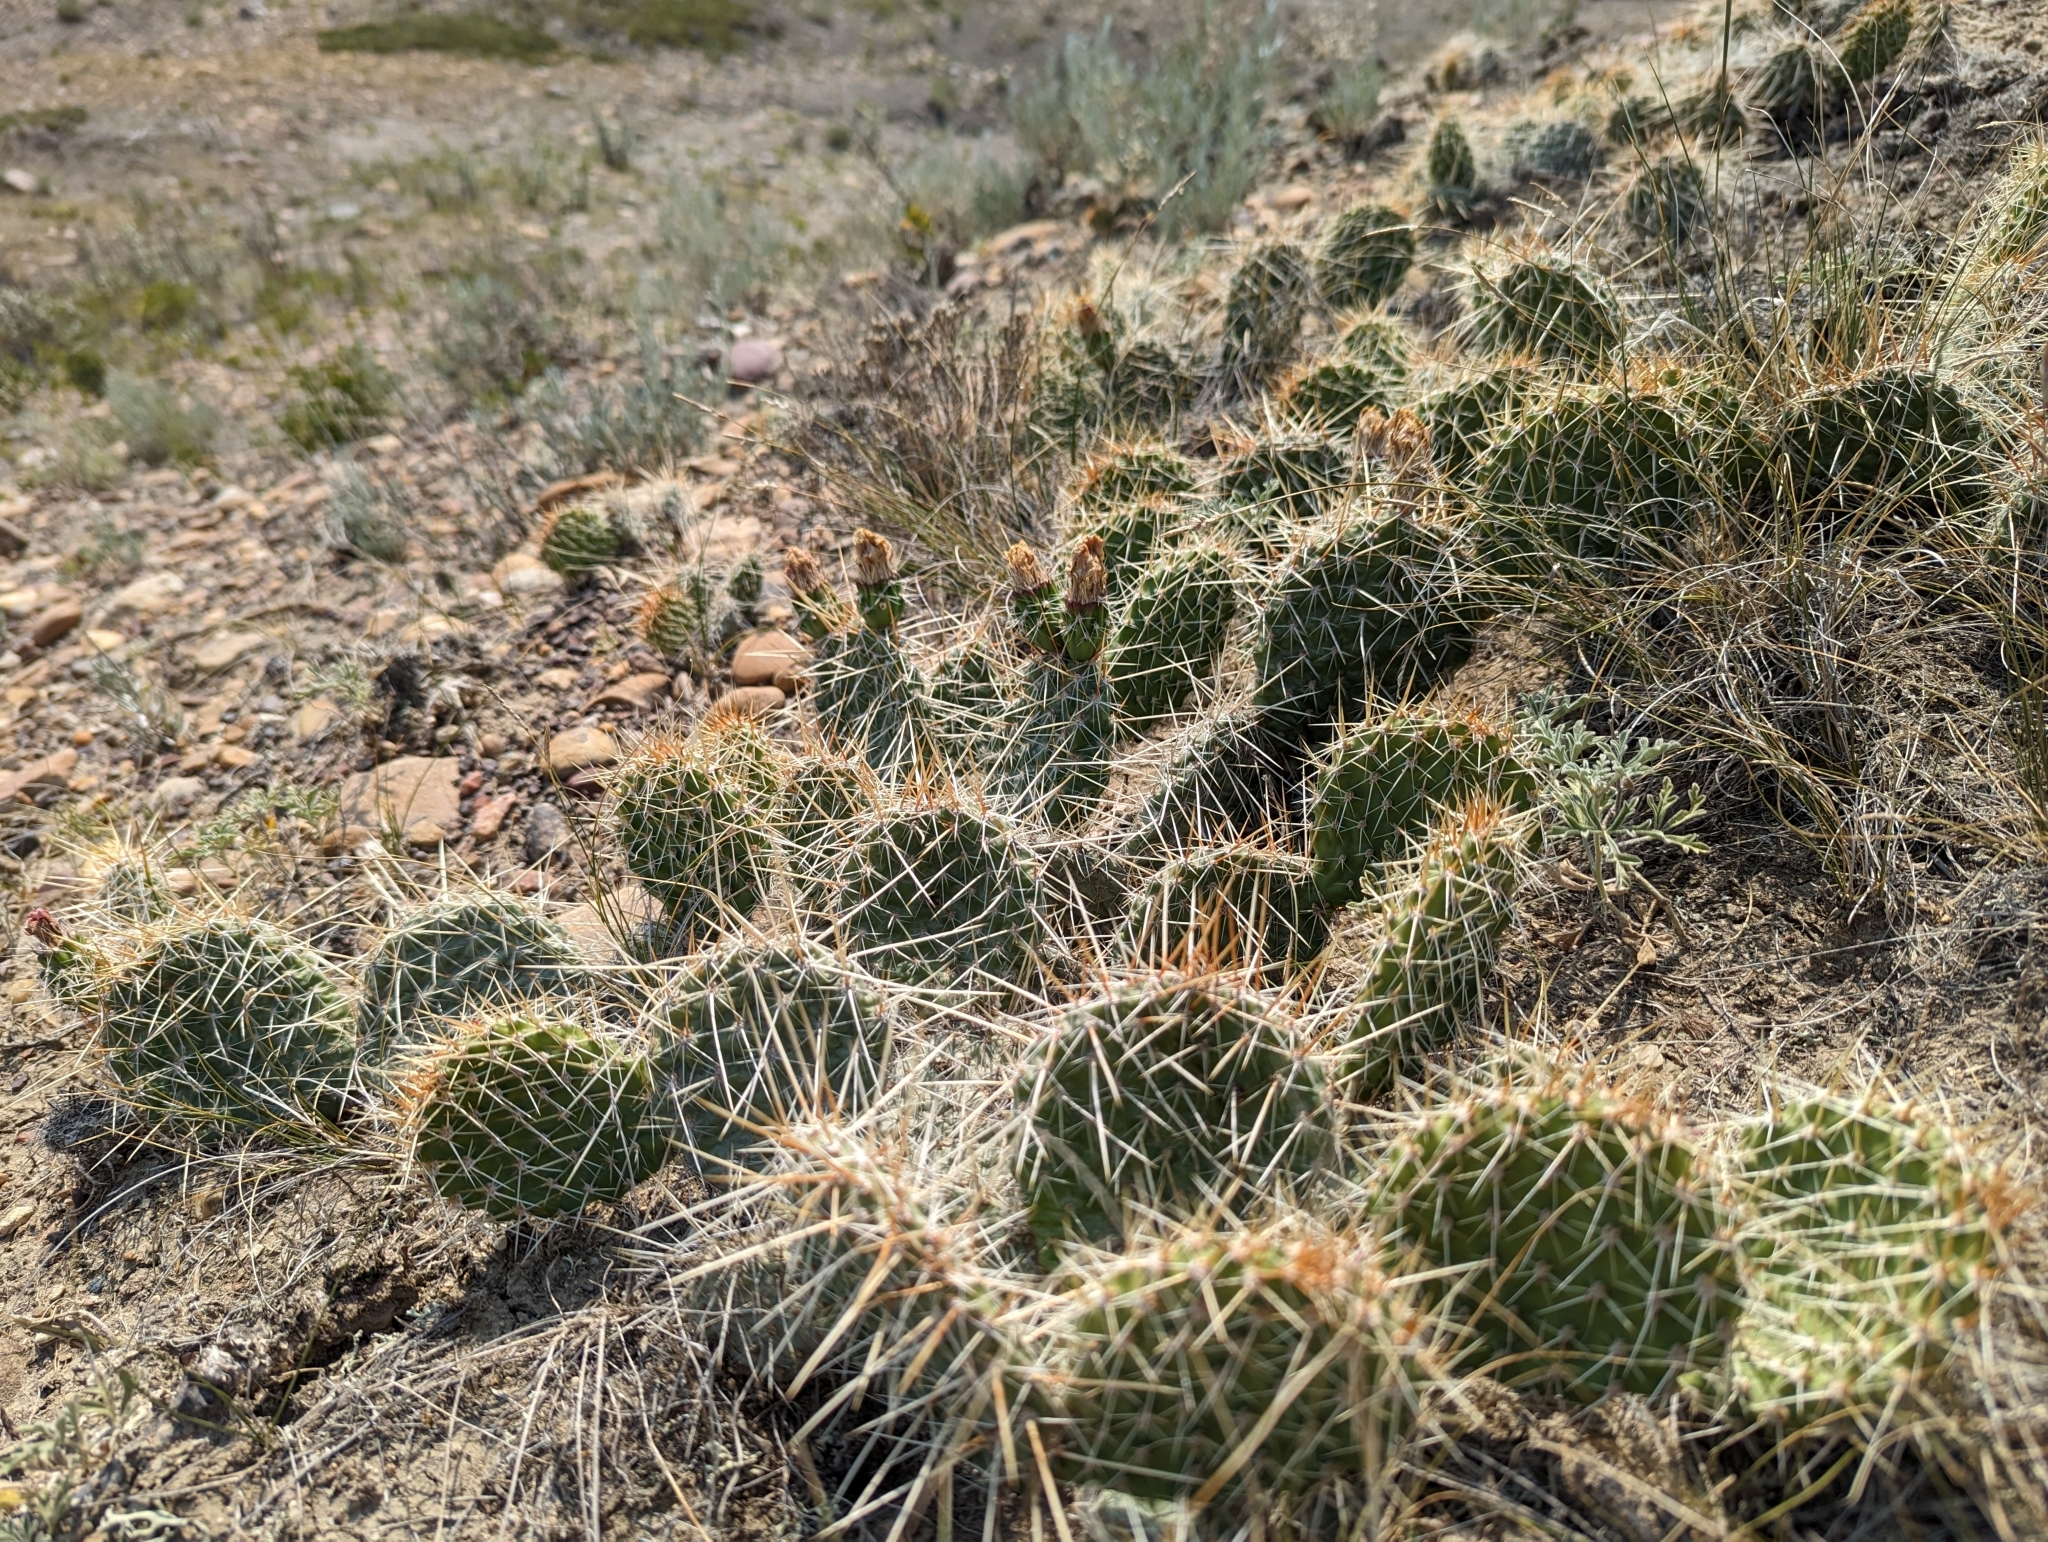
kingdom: Plantae
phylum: Tracheophyta
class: Magnoliopsida
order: Caryophyllales
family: Cactaceae
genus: Opuntia
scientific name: Opuntia polyacantha
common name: Plains prickly-pear
